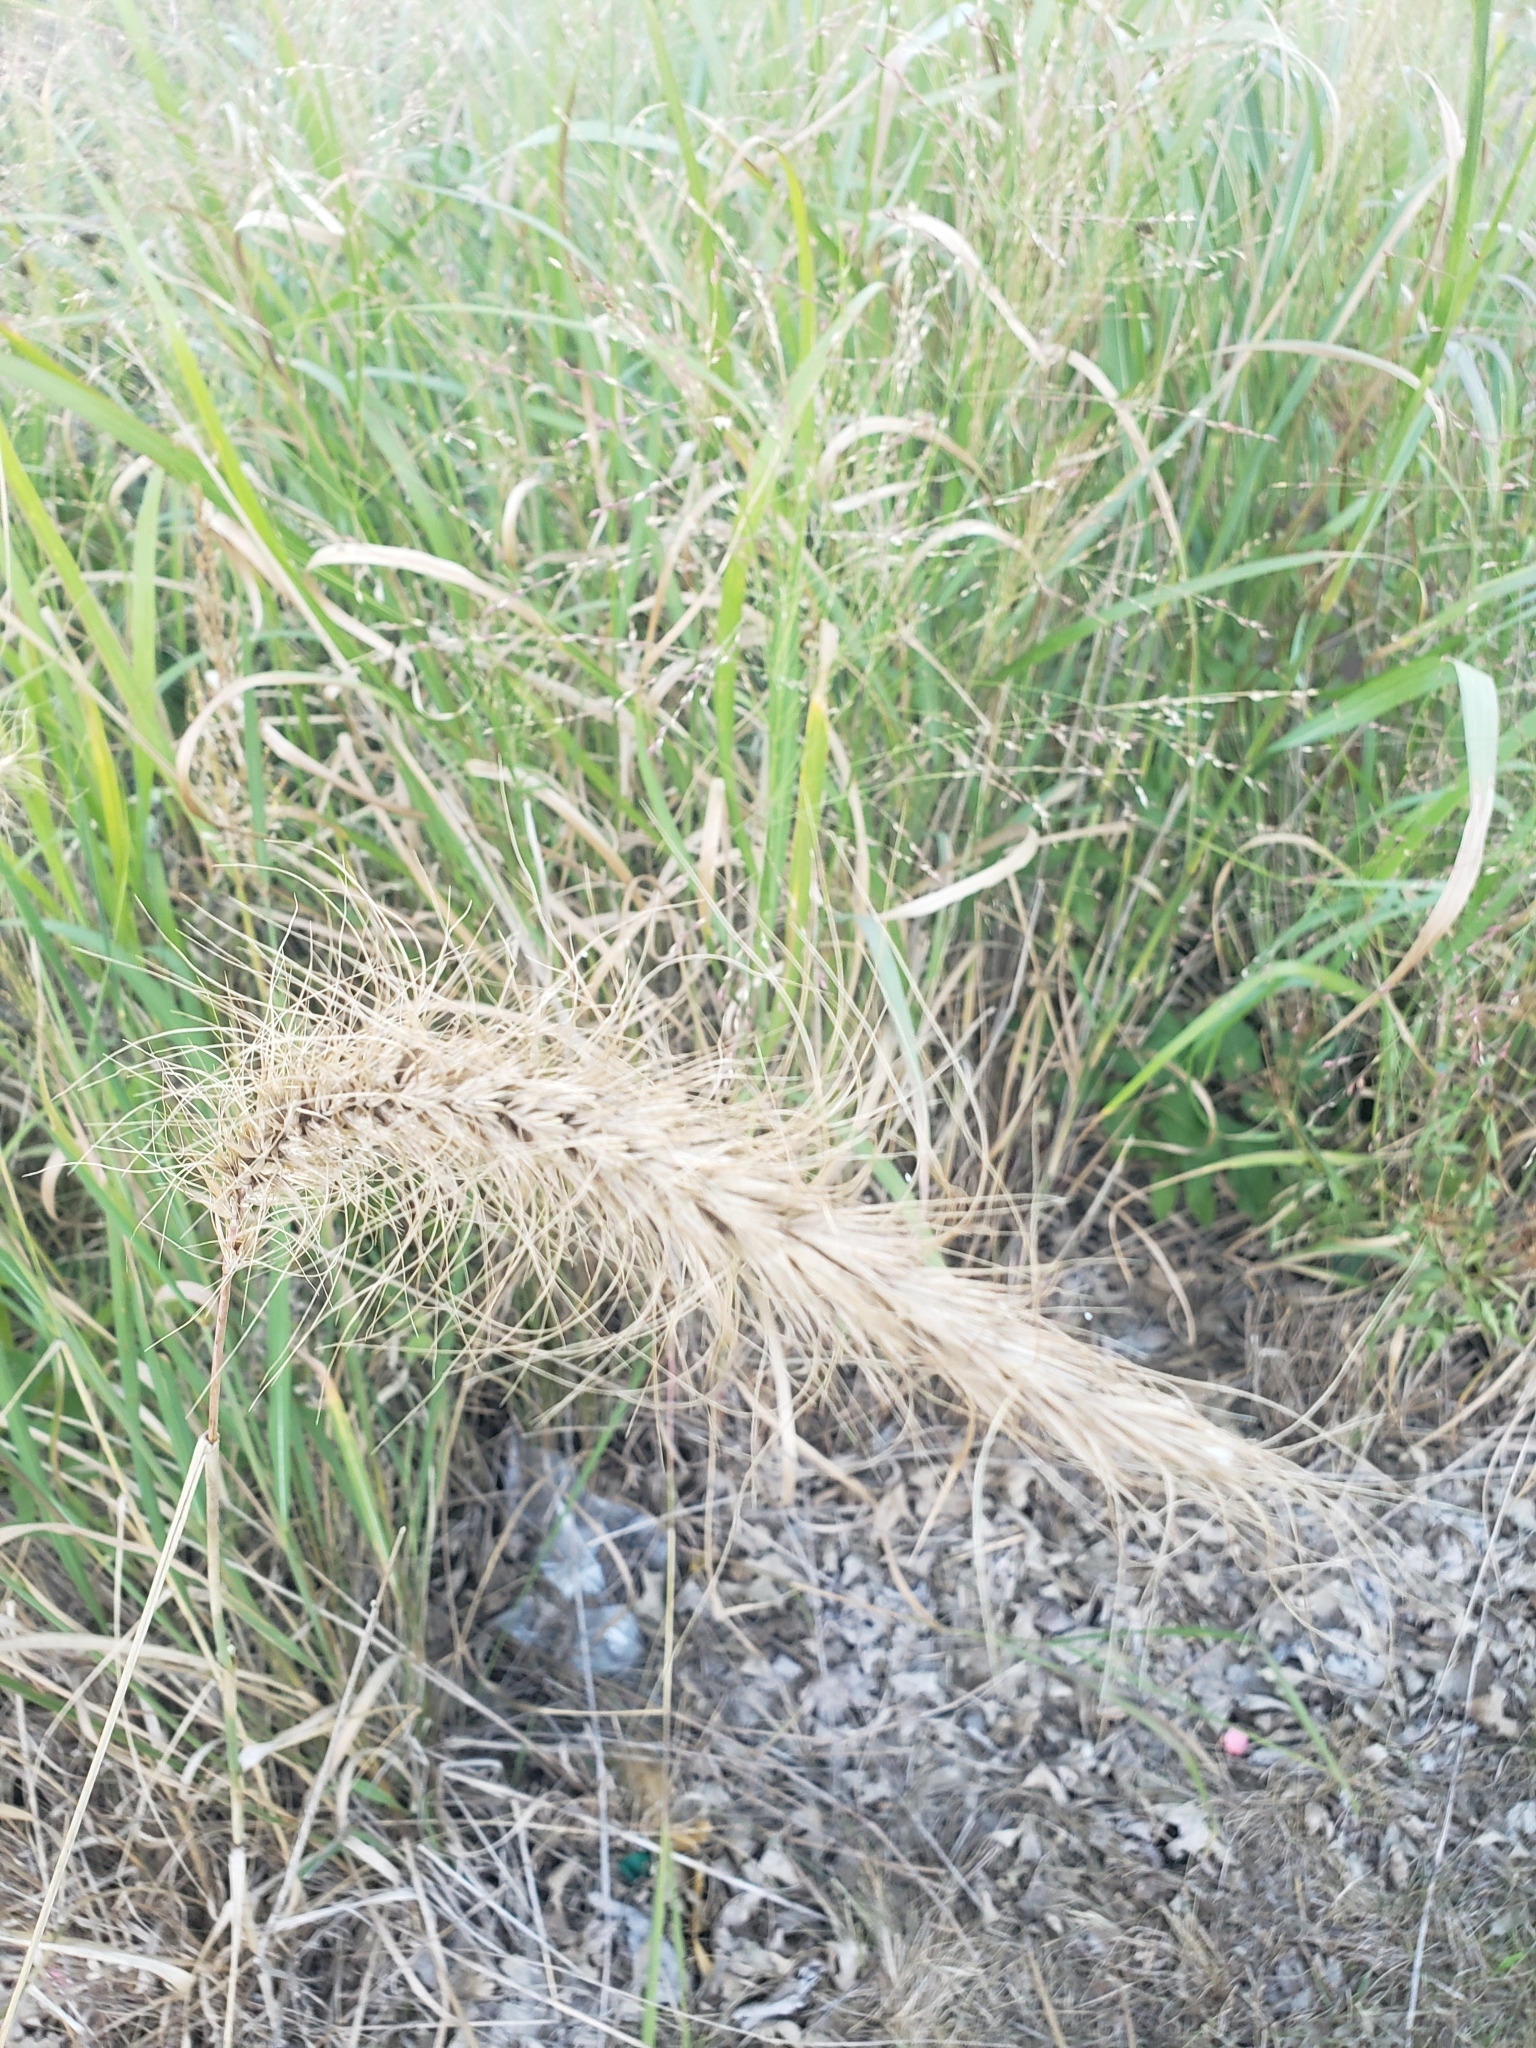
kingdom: Plantae
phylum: Tracheophyta
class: Liliopsida
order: Poales
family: Poaceae
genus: Elymus
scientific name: Elymus canadensis
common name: Canada wild rye
